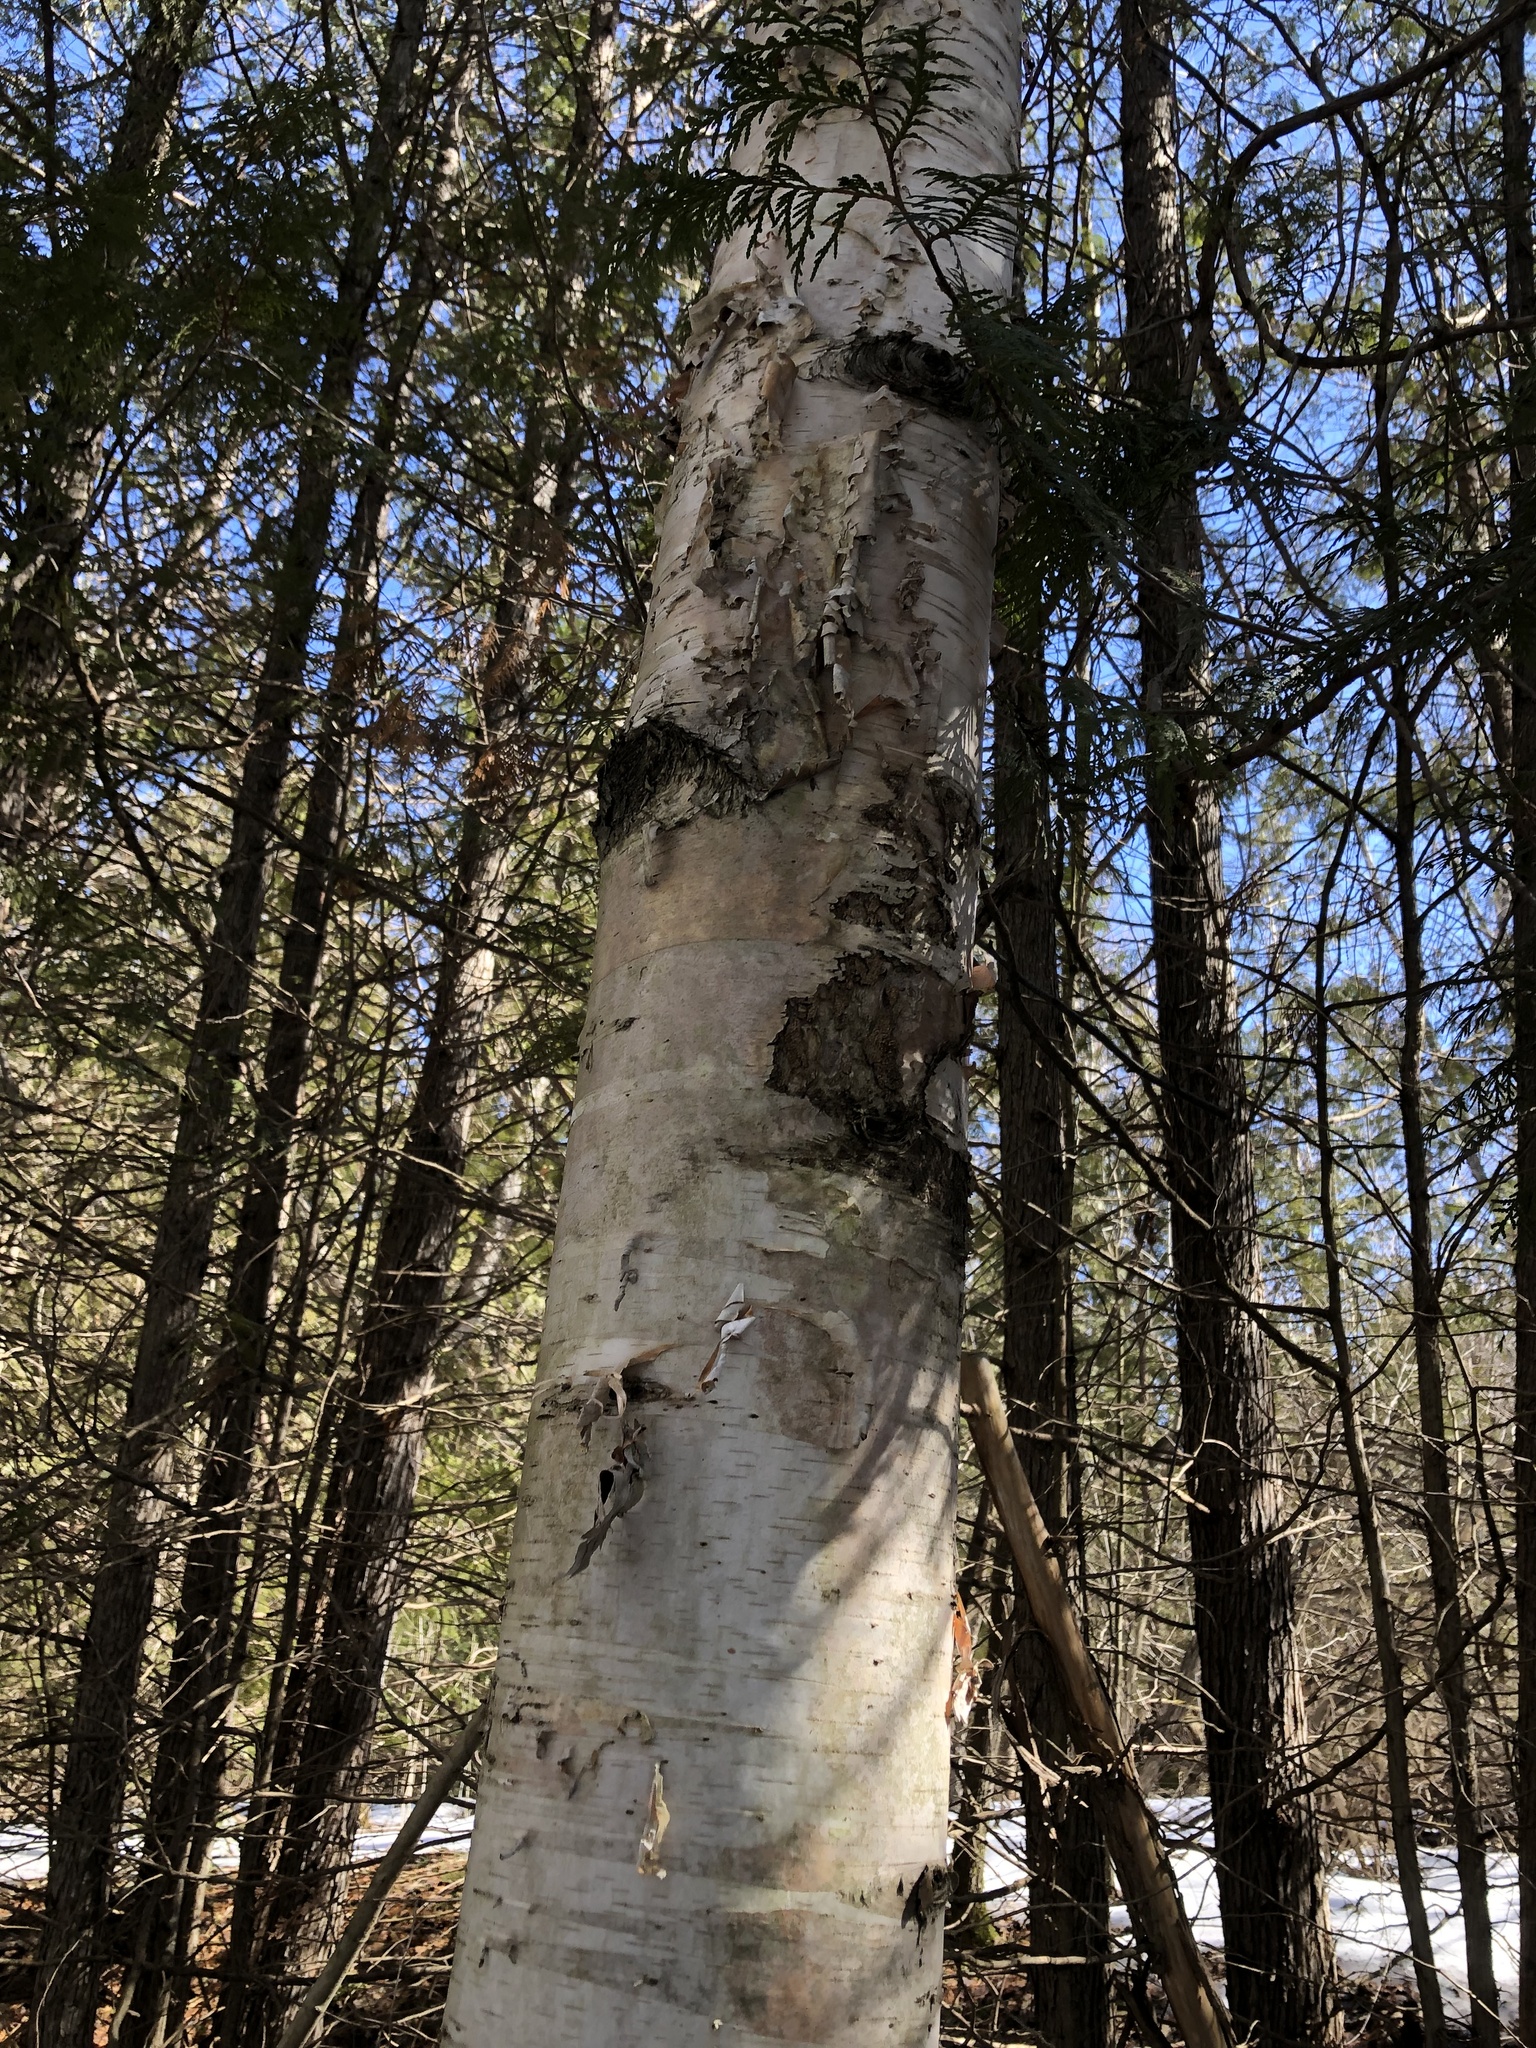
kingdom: Plantae
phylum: Tracheophyta
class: Magnoliopsida
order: Fagales
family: Betulaceae
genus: Betula
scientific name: Betula papyrifera
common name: Paper birch
